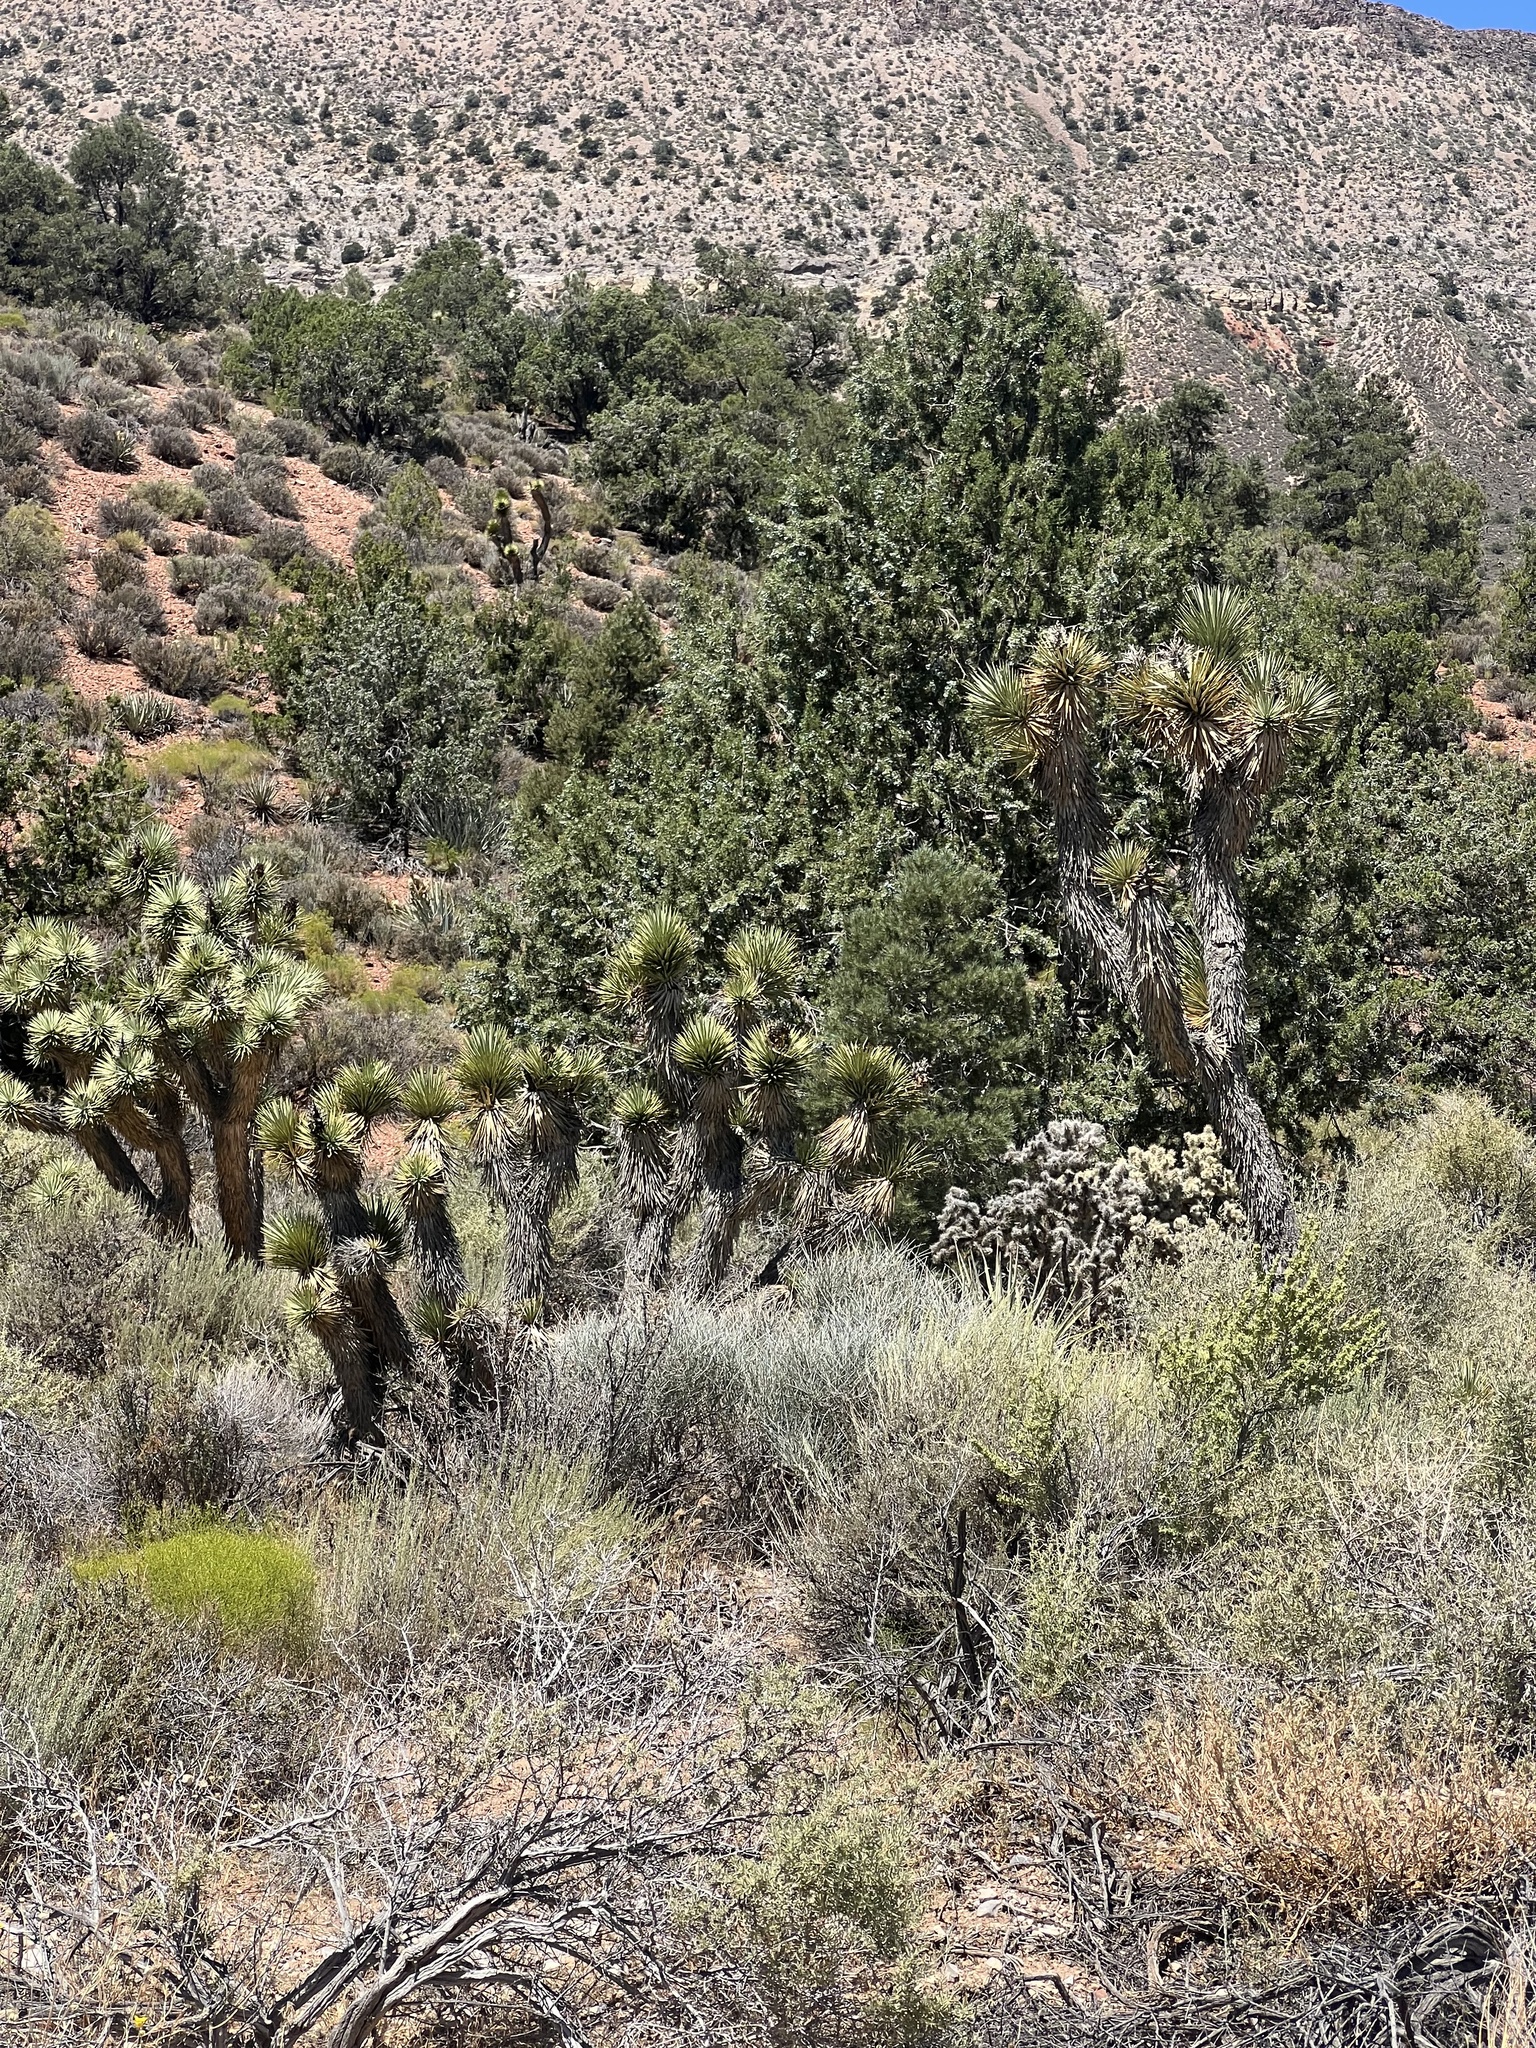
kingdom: Plantae
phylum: Tracheophyta
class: Liliopsida
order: Asparagales
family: Asparagaceae
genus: Yucca
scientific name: Yucca brevifolia
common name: Joshua tree
